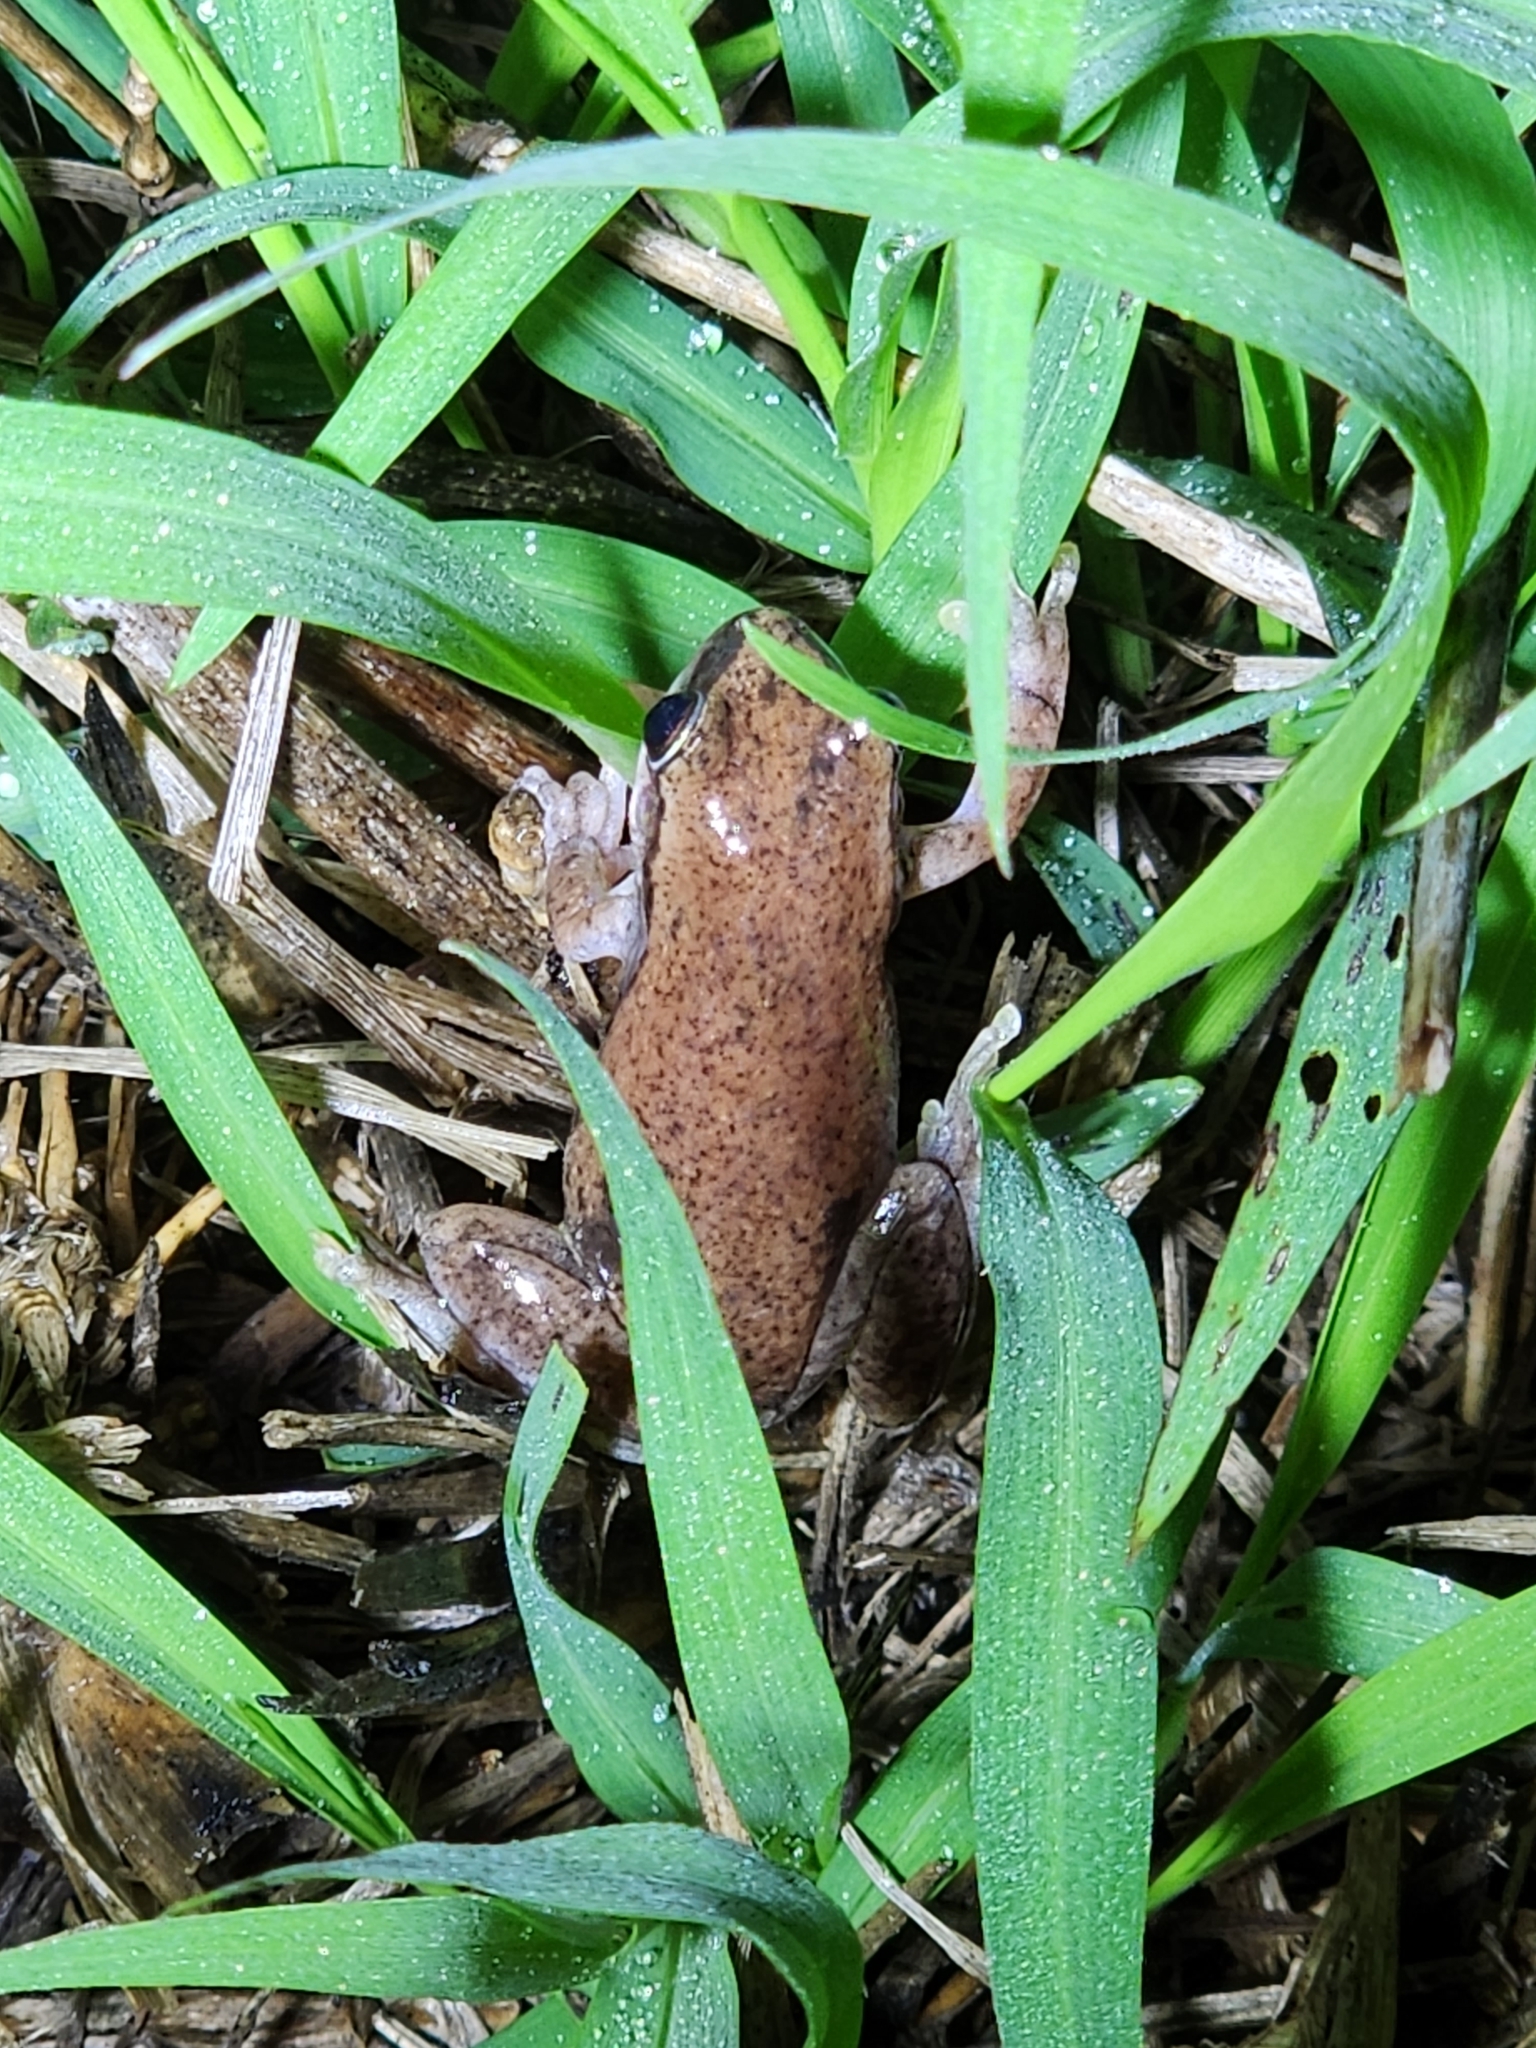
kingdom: Animalia
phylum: Chordata
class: Amphibia
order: Anura
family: Pelodryadidae
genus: Litoria
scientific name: Litoria rubella
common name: Desert tree frog
